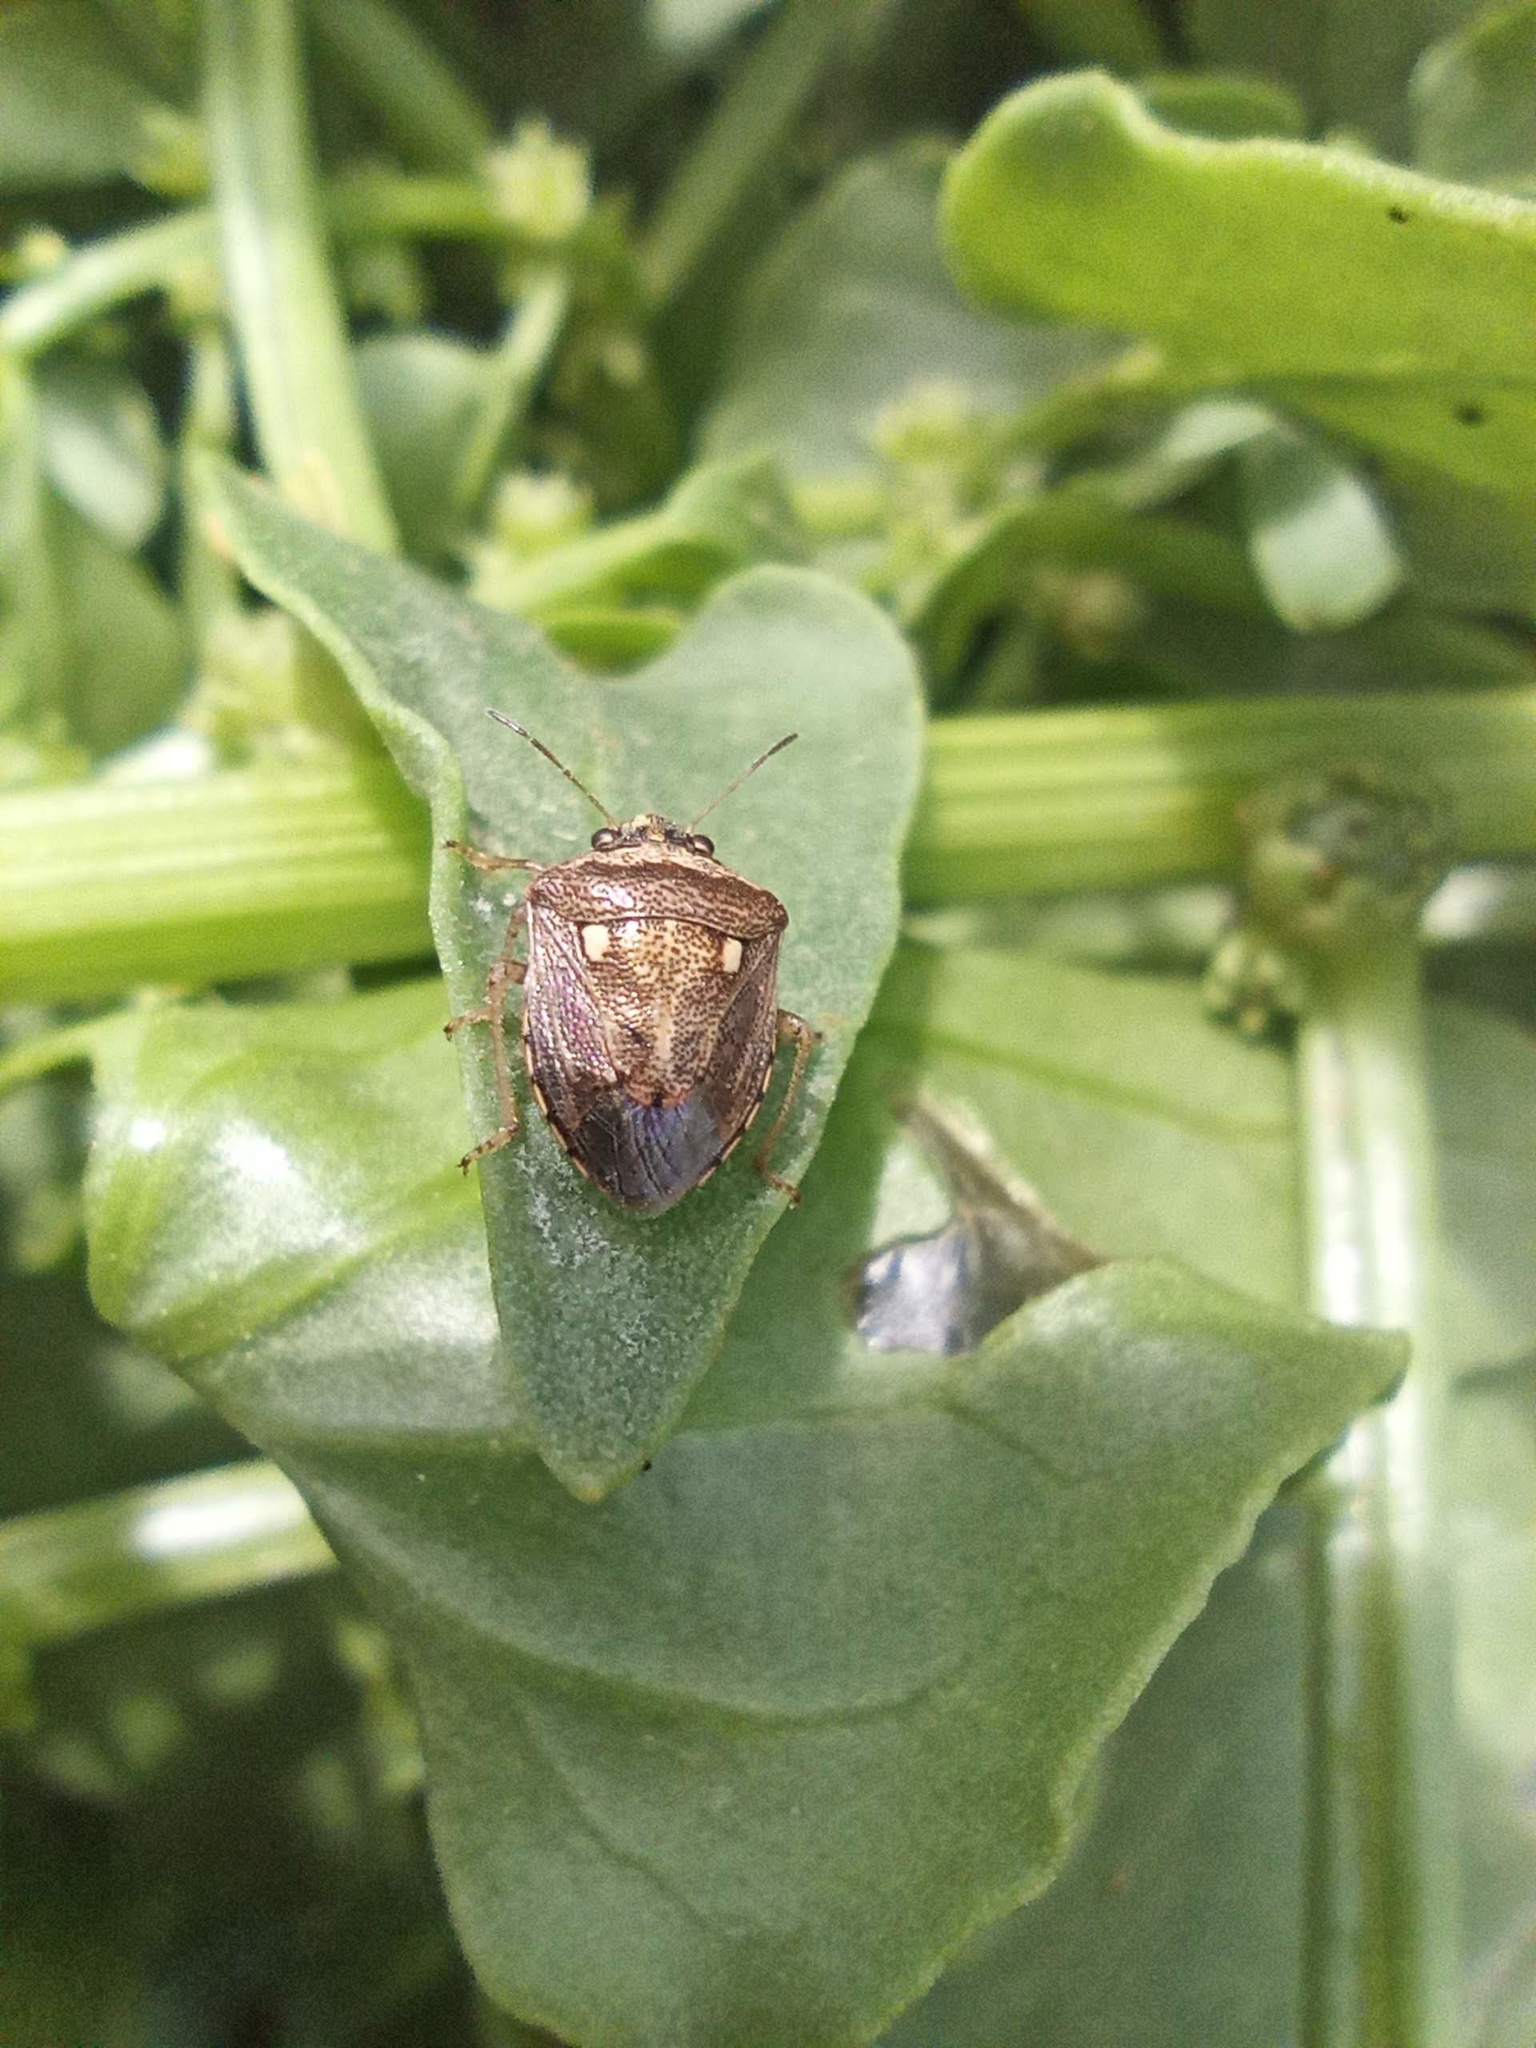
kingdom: Animalia
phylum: Arthropoda
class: Insecta
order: Hemiptera
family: Pentatomidae
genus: Eysarcoris
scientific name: Eysarcoris ventralis
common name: White-spotted stink bug
